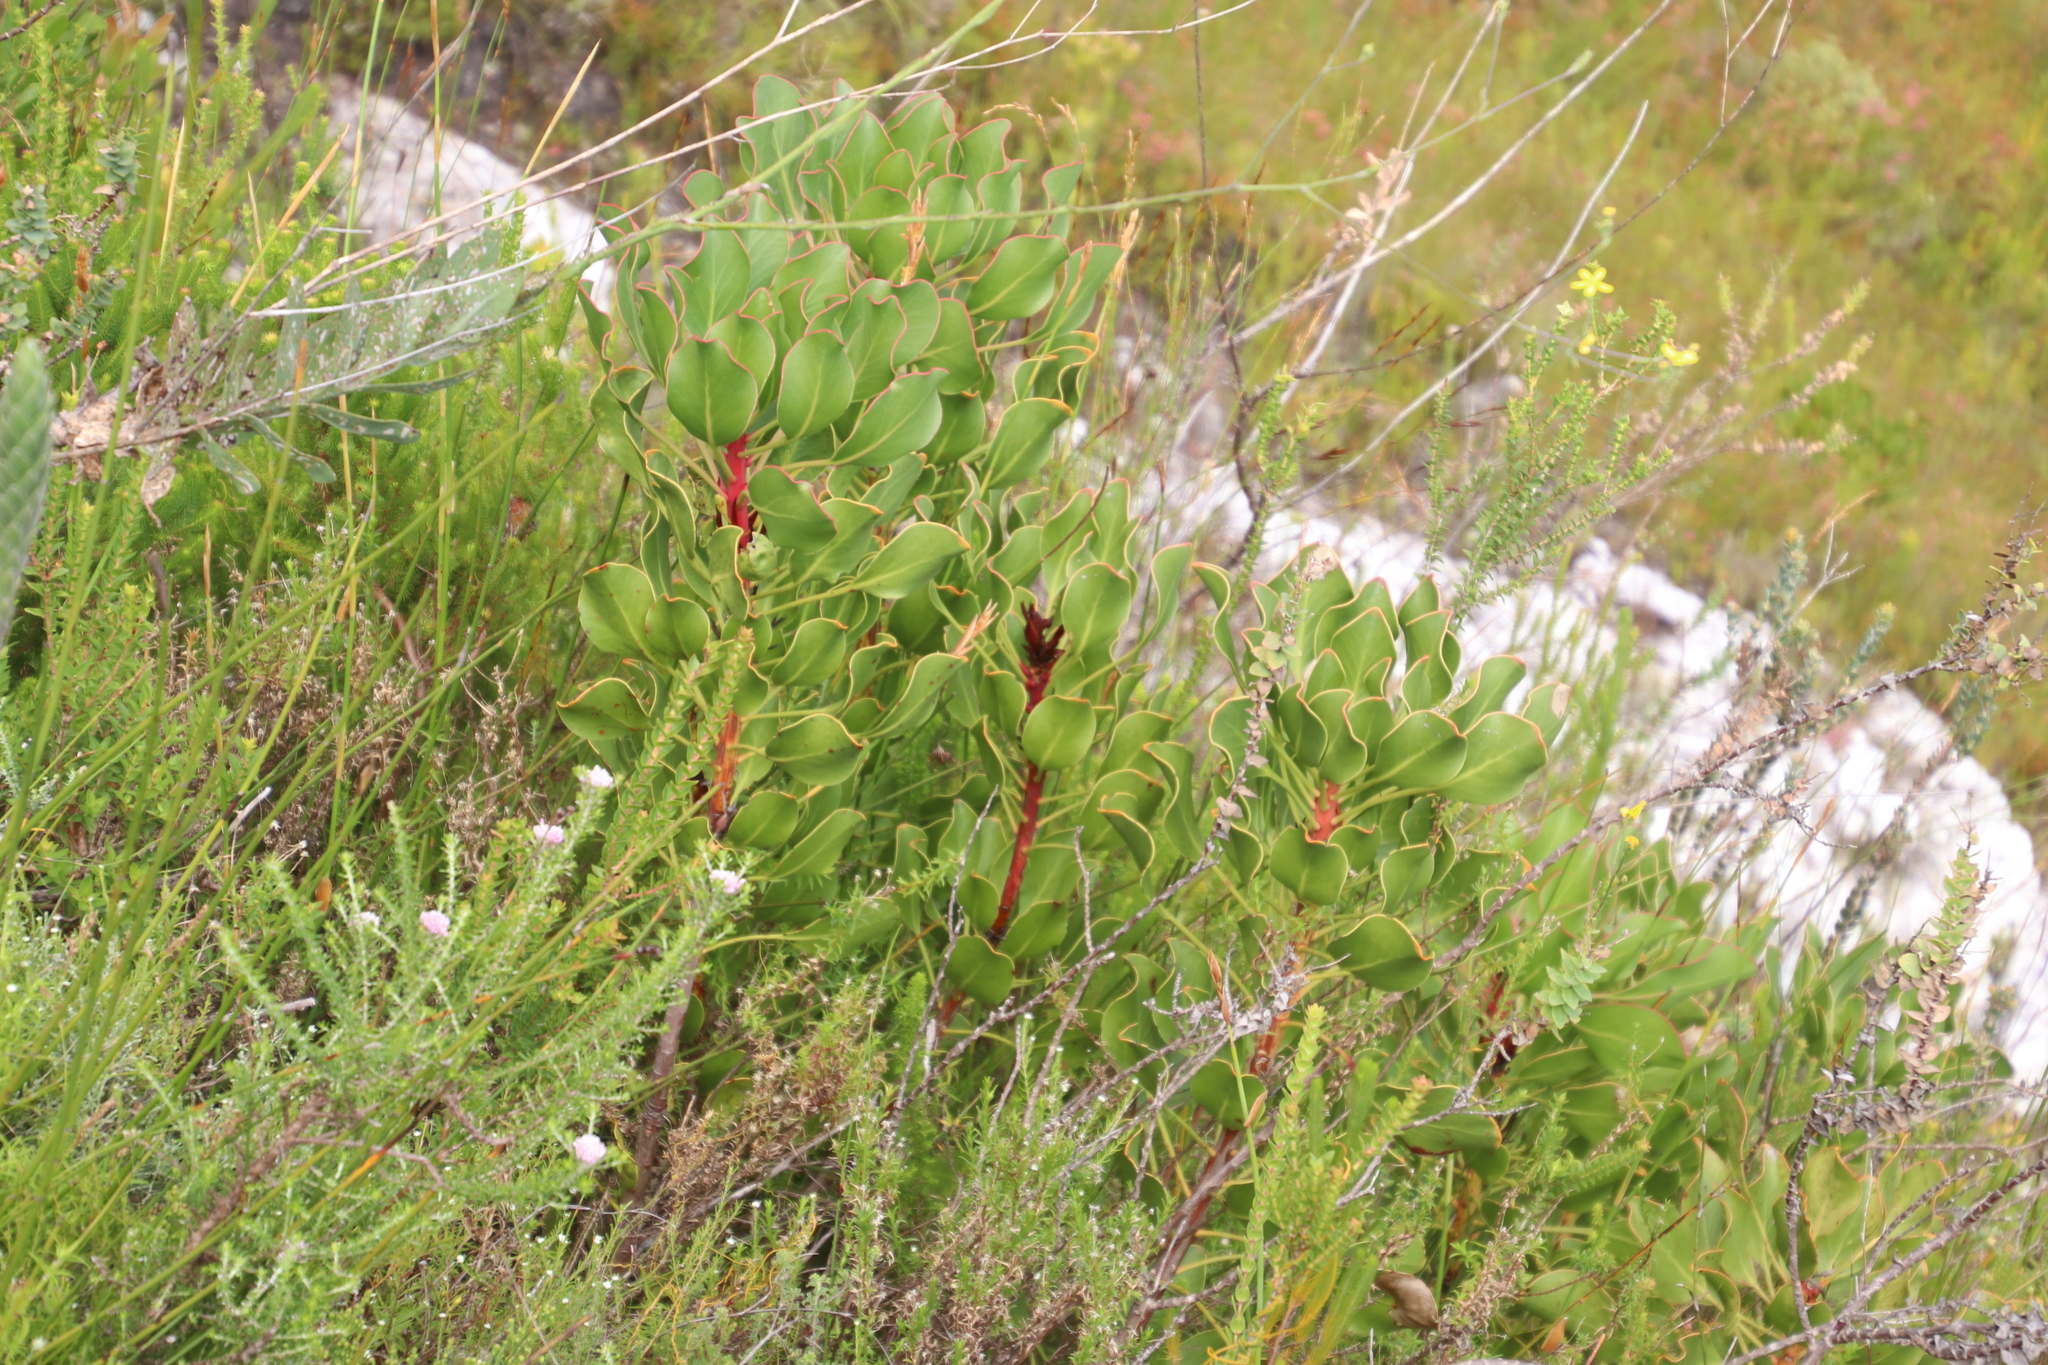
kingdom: Plantae
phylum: Tracheophyta
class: Magnoliopsida
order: Proteales
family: Proteaceae
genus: Protea
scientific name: Protea cynaroides
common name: King protea
